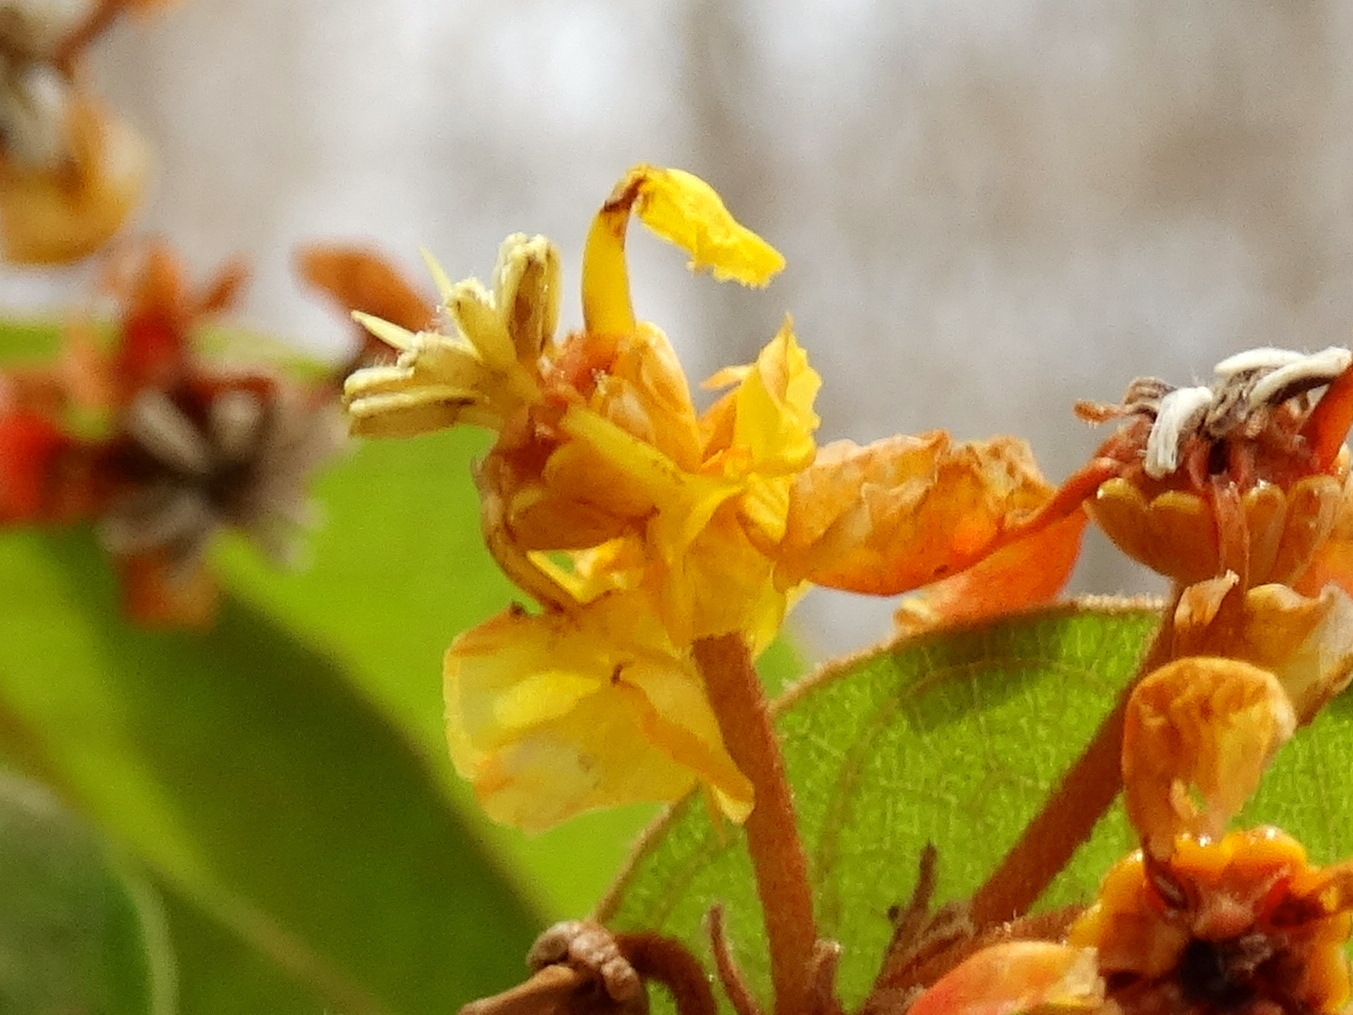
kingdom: Plantae
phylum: Tracheophyta
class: Magnoliopsida
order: Malpighiales
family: Malpighiaceae
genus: Byrsonima
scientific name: Byrsonima crassifolia
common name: Golden spoon
